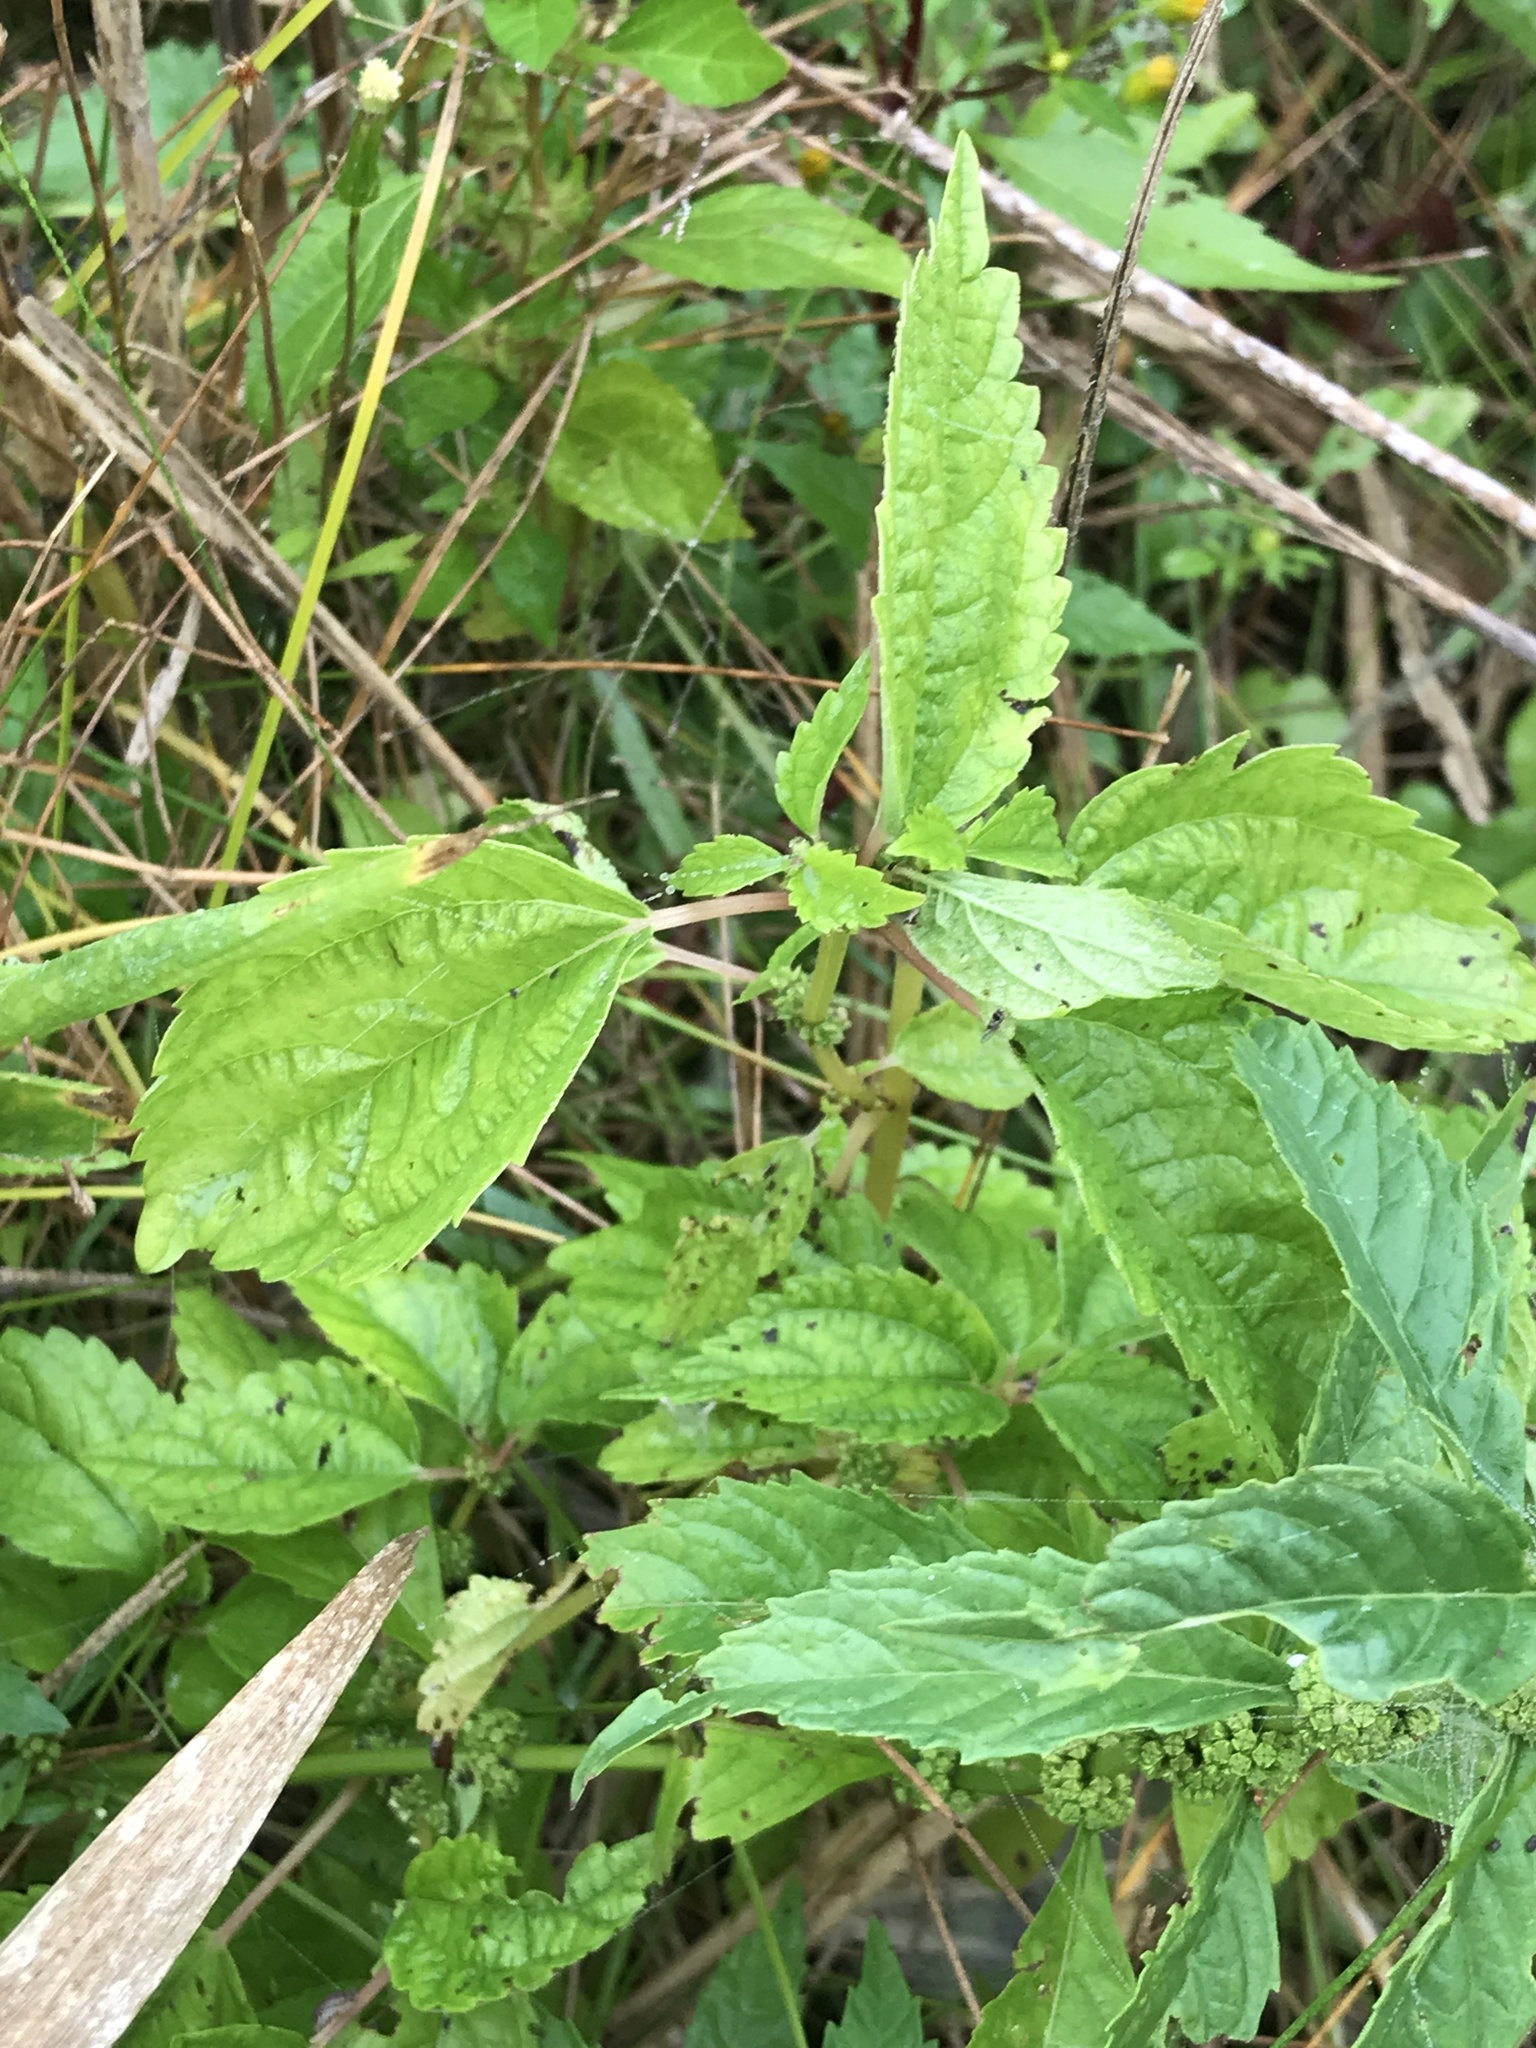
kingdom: Plantae
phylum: Tracheophyta
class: Magnoliopsida
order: Rosales
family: Urticaceae
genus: Pilea
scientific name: Pilea pumila
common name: Clearweed
